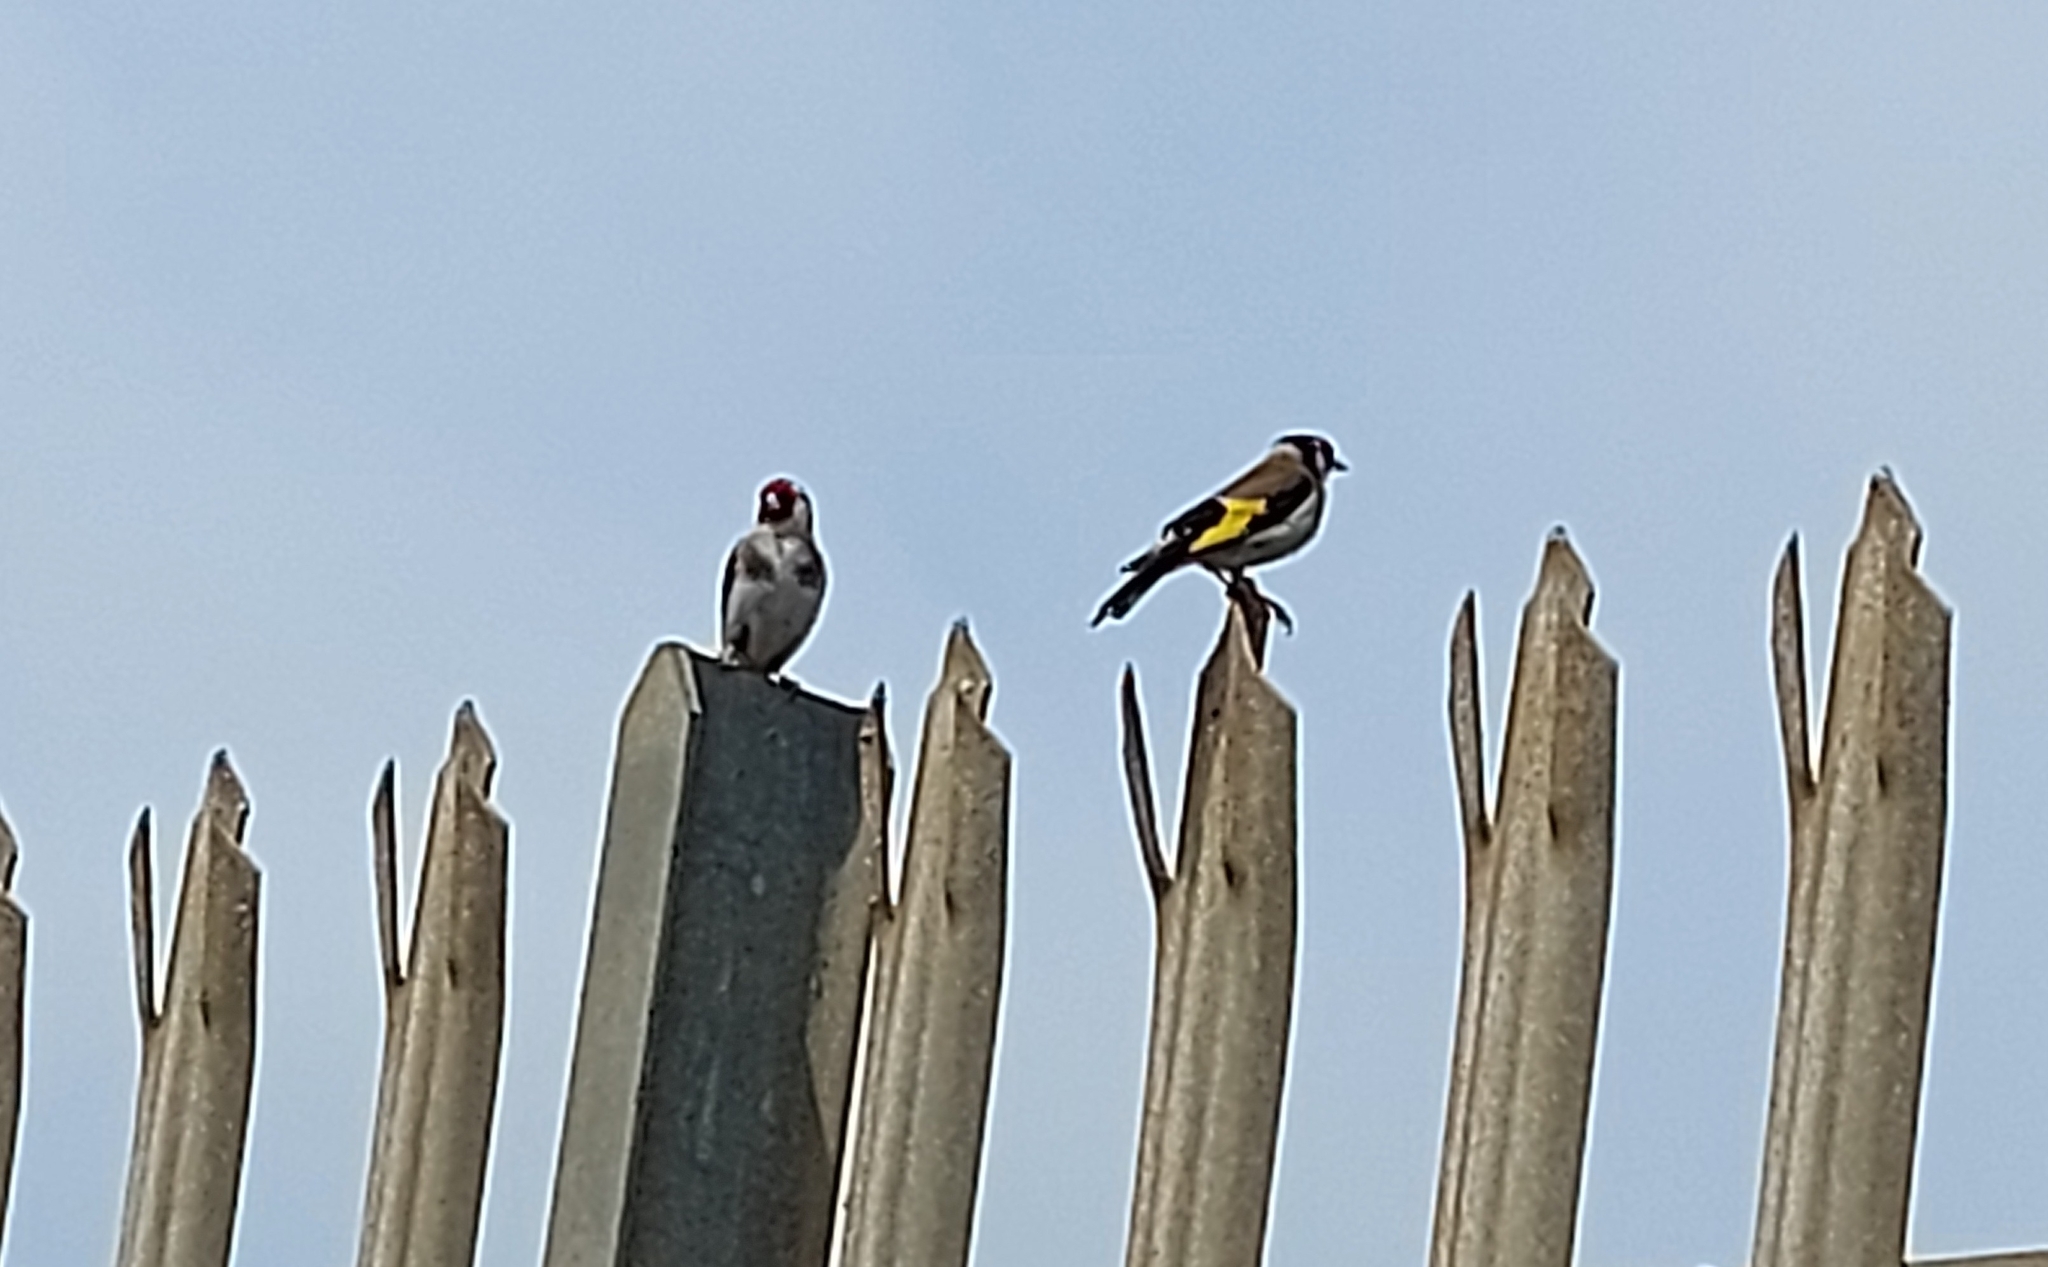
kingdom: Animalia
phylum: Chordata
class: Aves
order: Passeriformes
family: Fringillidae
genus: Carduelis
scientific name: Carduelis carduelis
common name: European goldfinch
